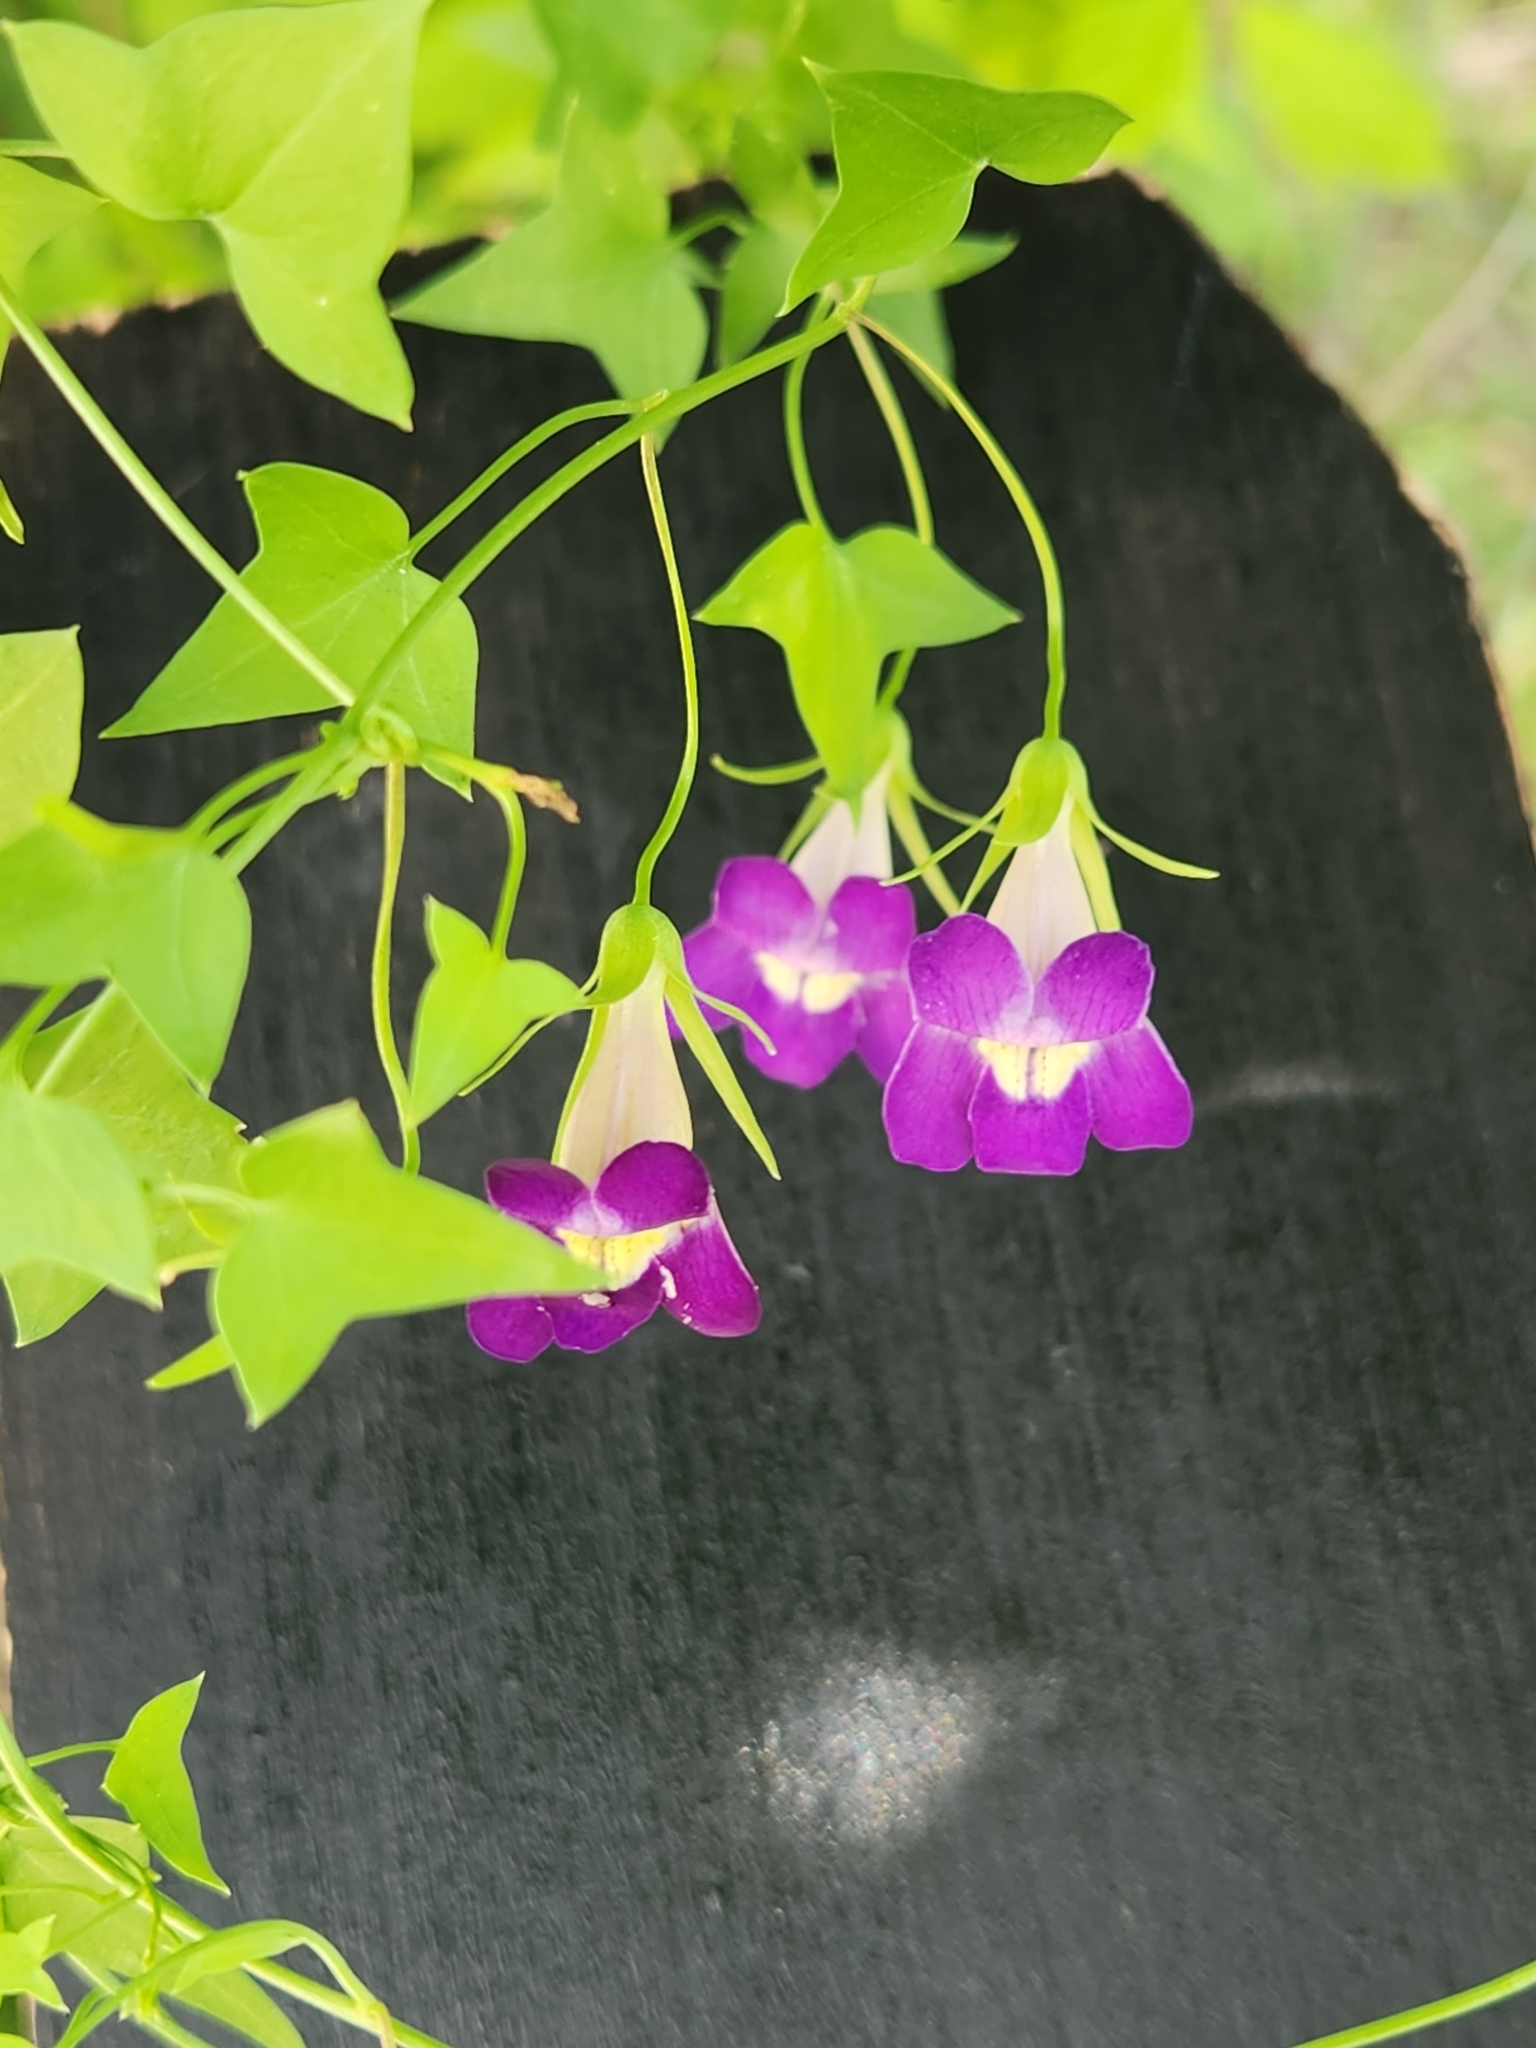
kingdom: Plantae
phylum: Tracheophyta
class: Magnoliopsida
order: Lamiales
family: Plantaginaceae
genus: Maurandella
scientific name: Maurandella antirrhiniflora
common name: Violet twining-snapdragon
